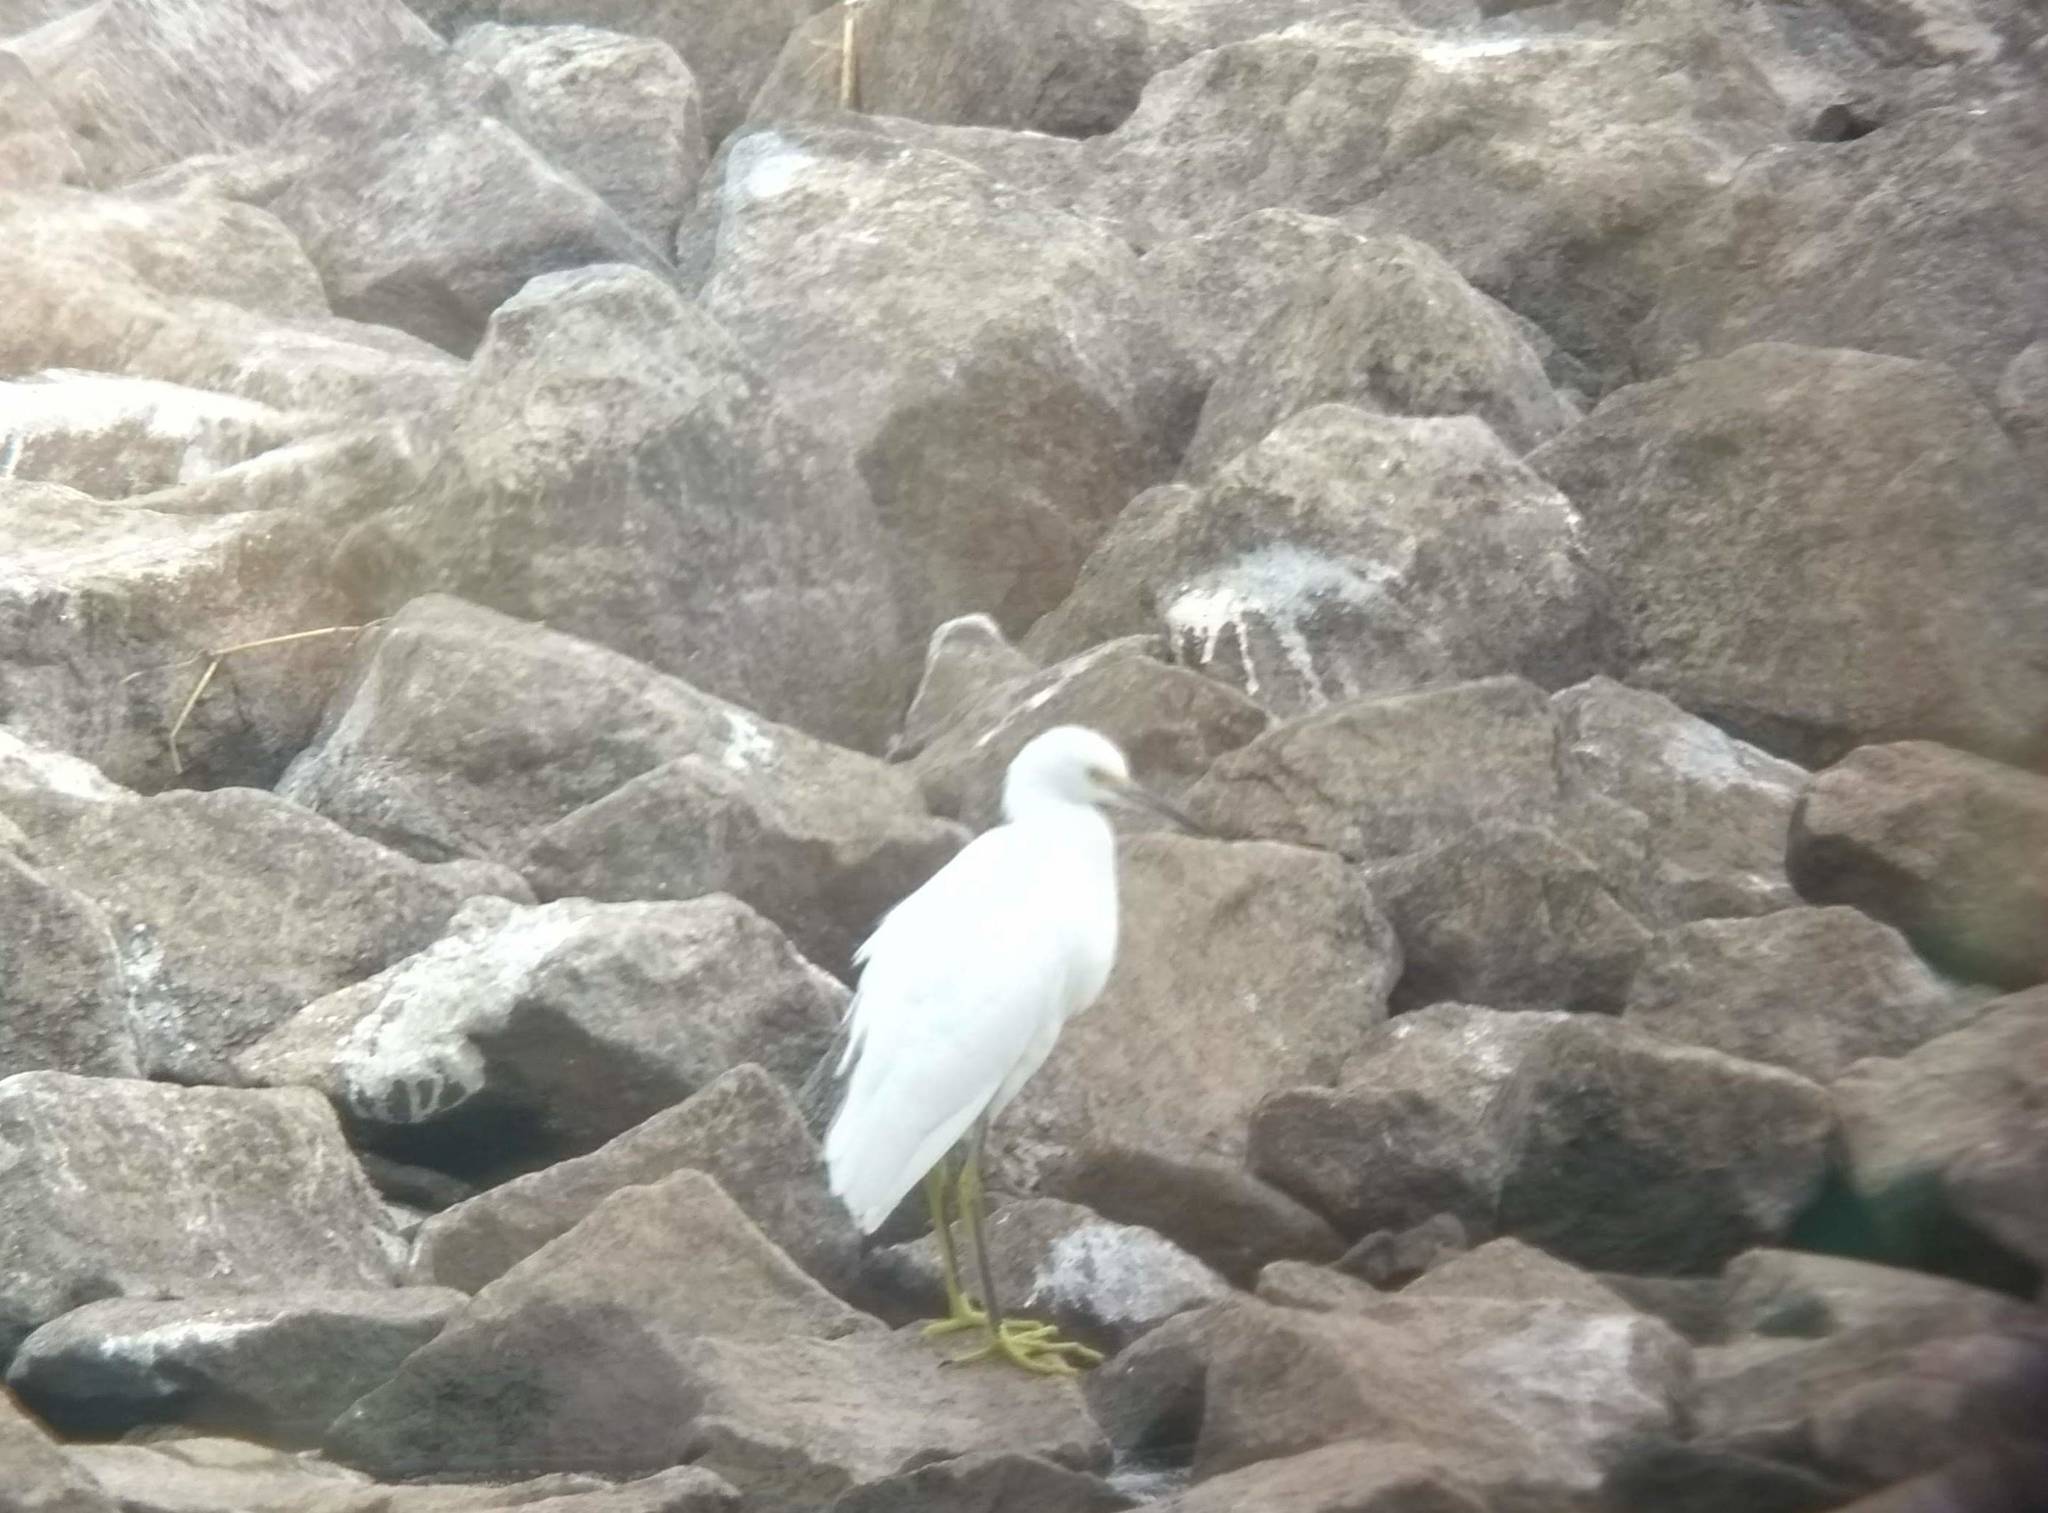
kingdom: Animalia
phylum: Chordata
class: Aves
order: Pelecaniformes
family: Ardeidae
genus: Egretta
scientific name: Egretta thula
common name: Snowy egret
